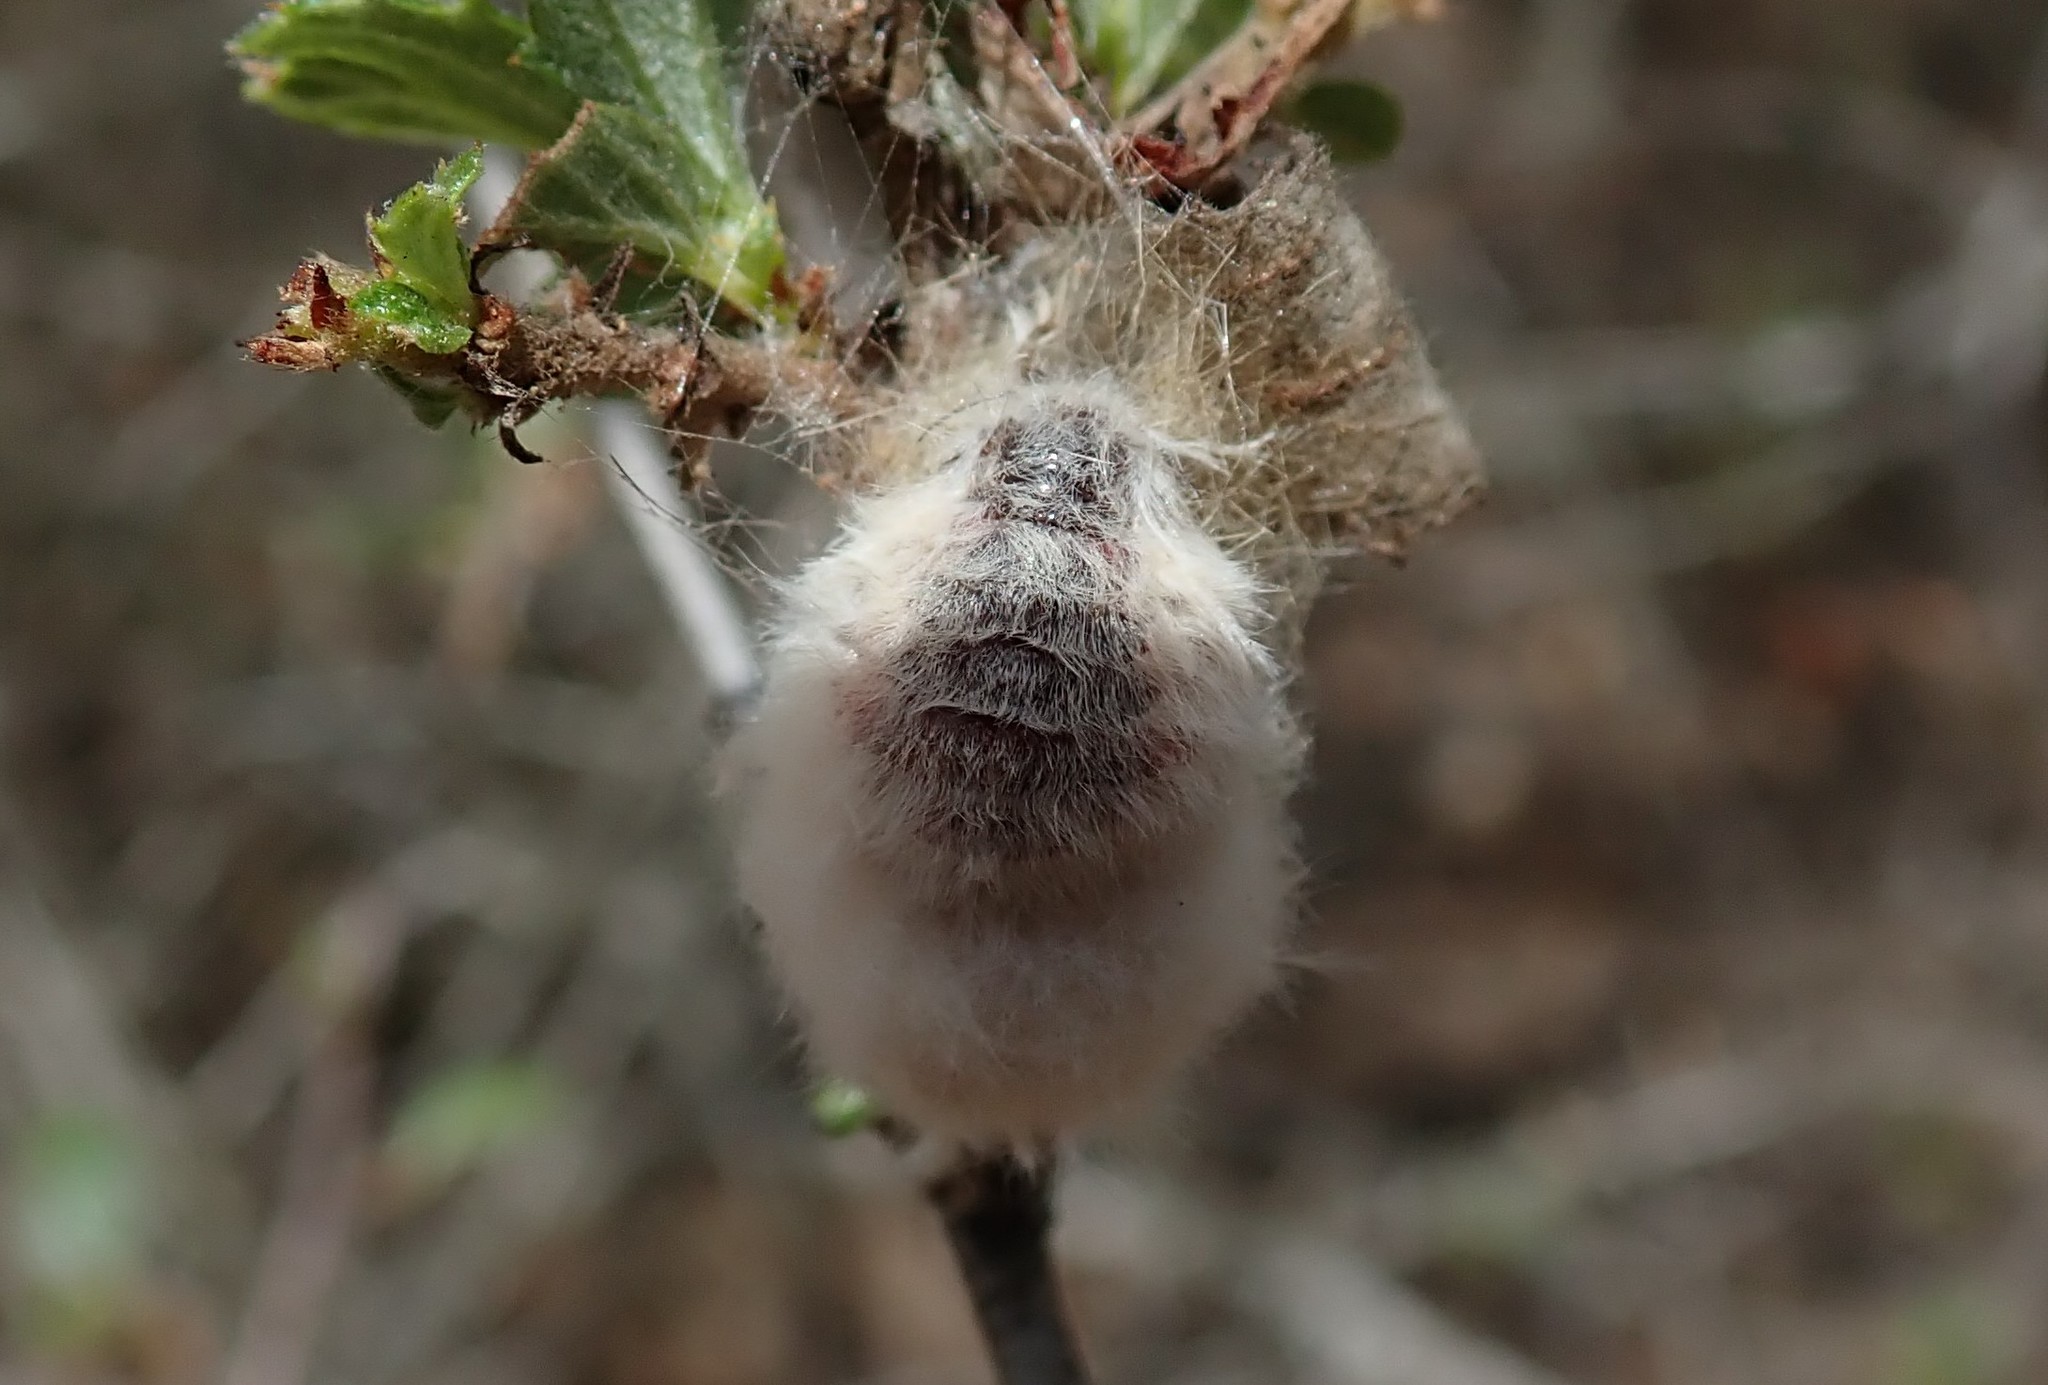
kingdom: Animalia
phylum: Arthropoda
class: Insecta
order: Lepidoptera
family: Erebidae
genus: Orgyia
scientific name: Orgyia vetusta
